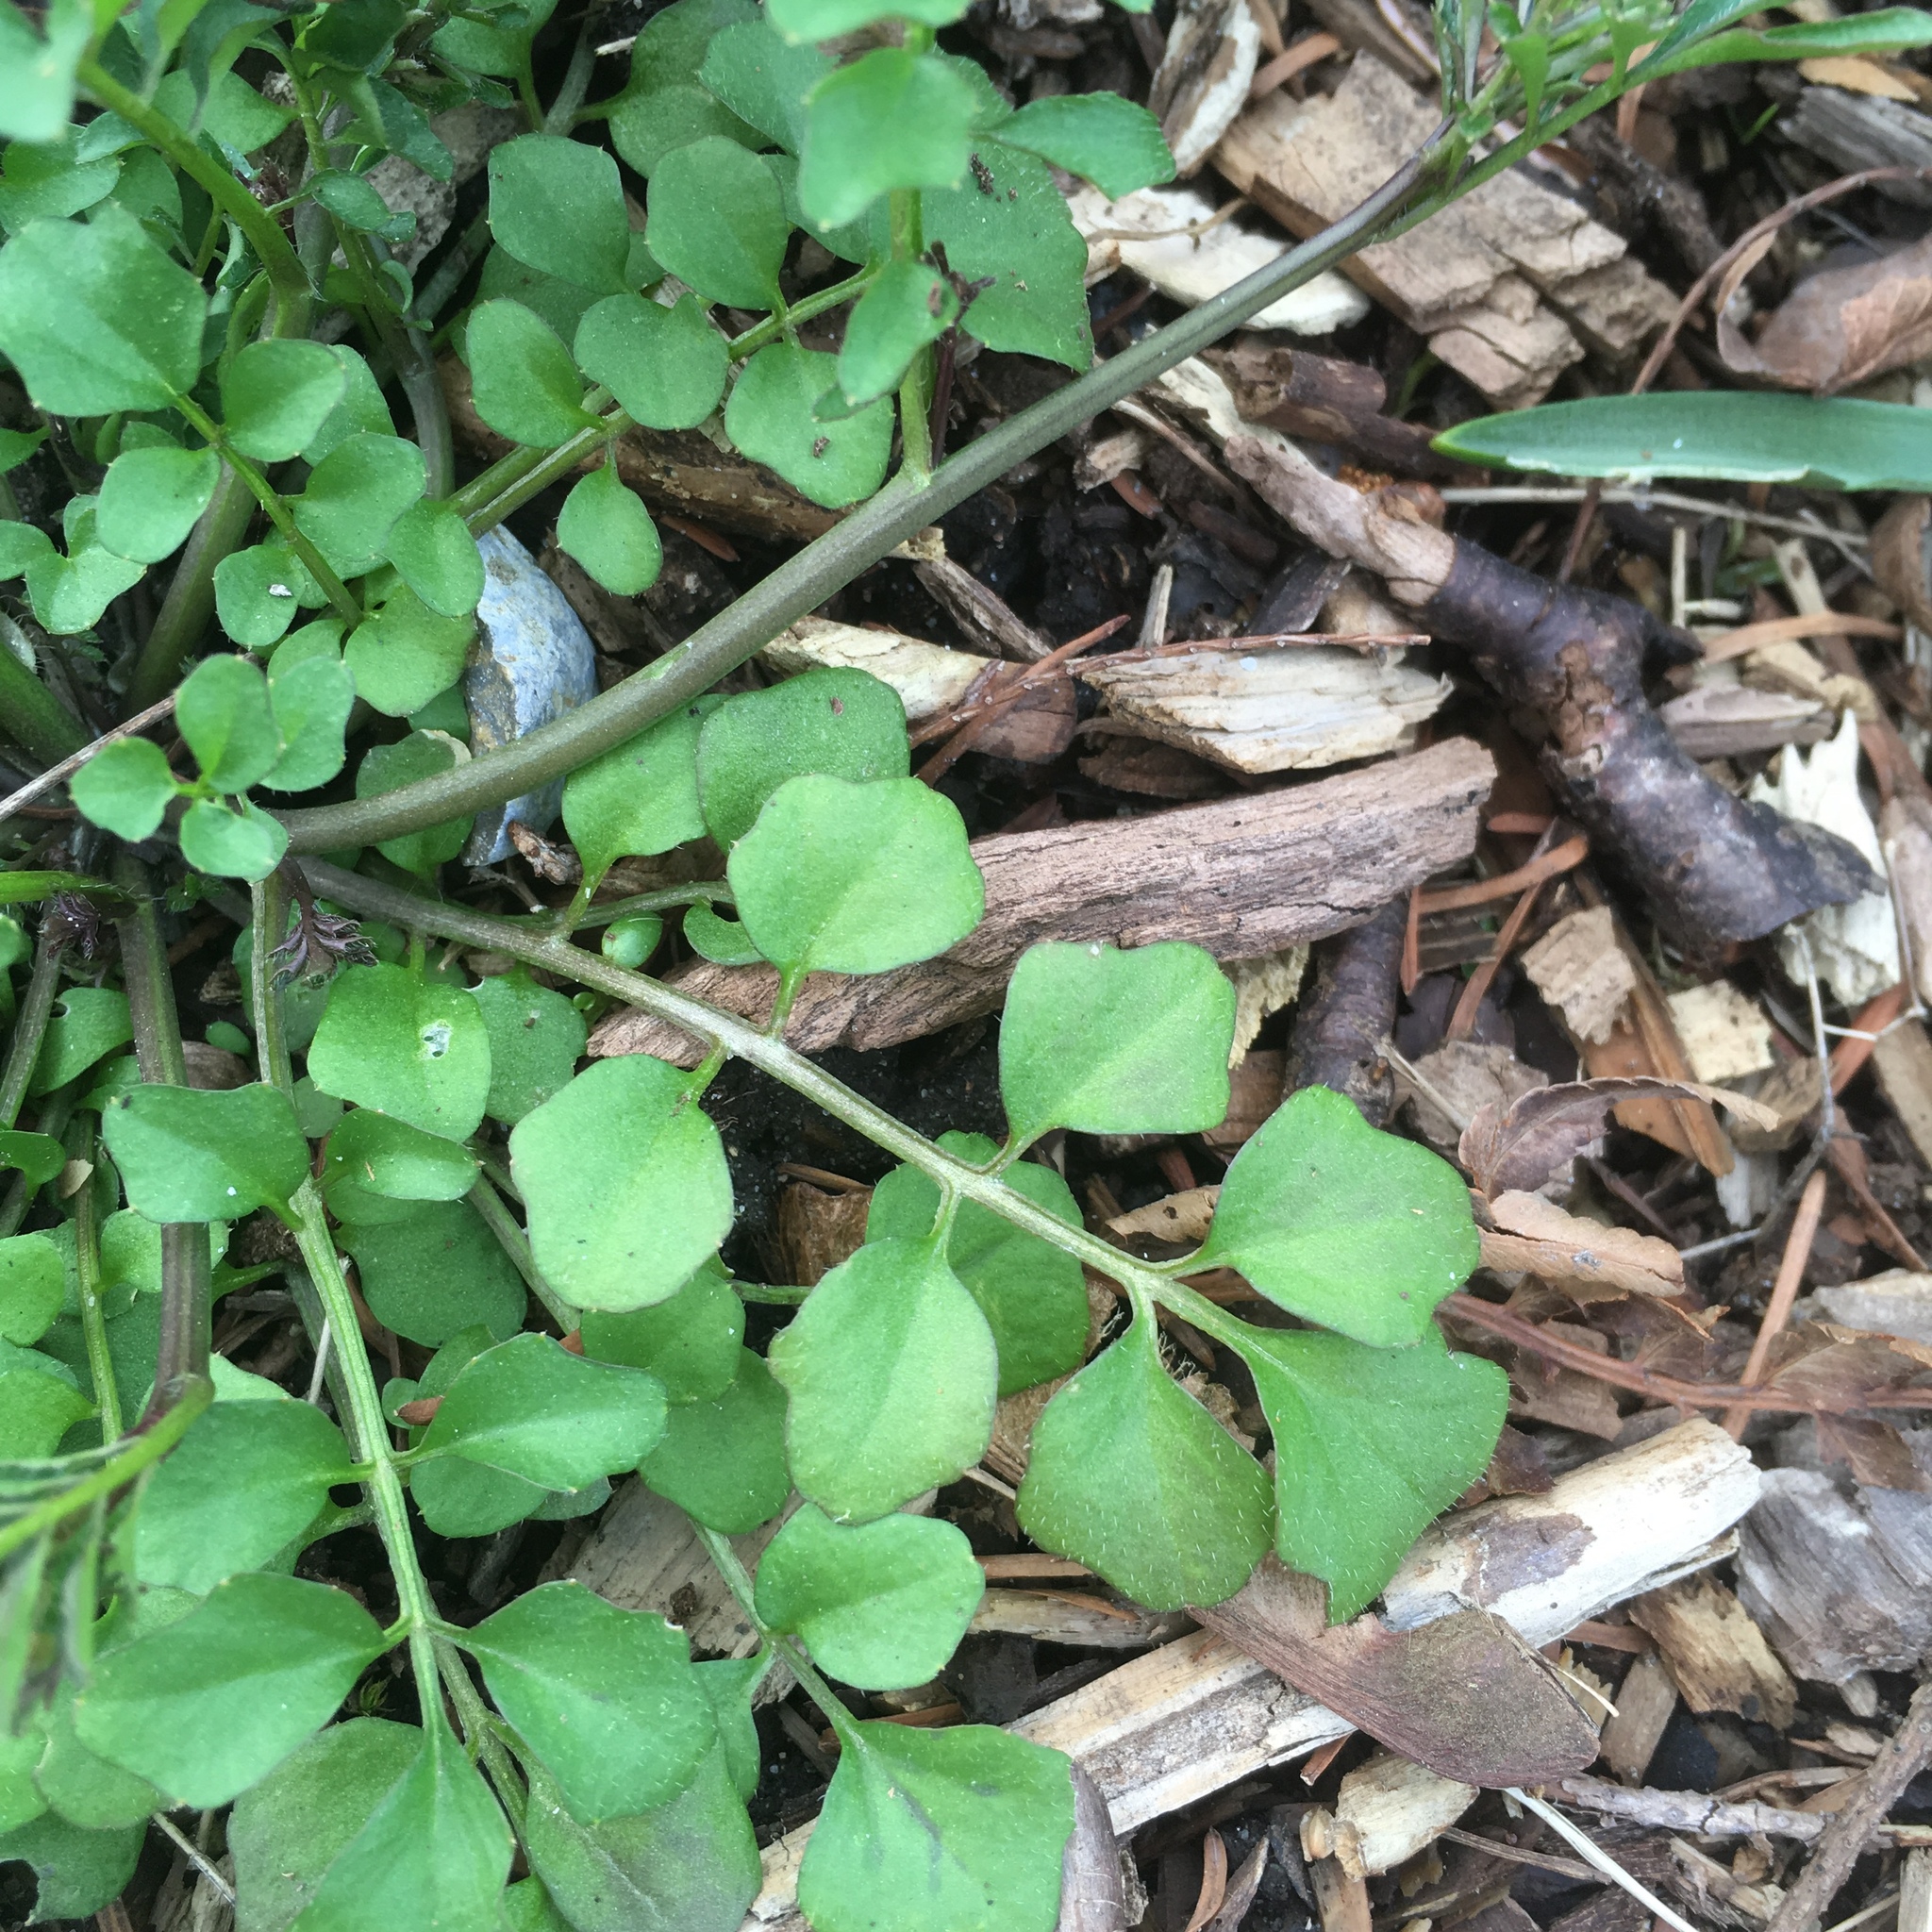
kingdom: Plantae
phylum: Tracheophyta
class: Magnoliopsida
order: Brassicales
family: Brassicaceae
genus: Cardamine
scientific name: Cardamine hirsuta
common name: Hairy bittercress
